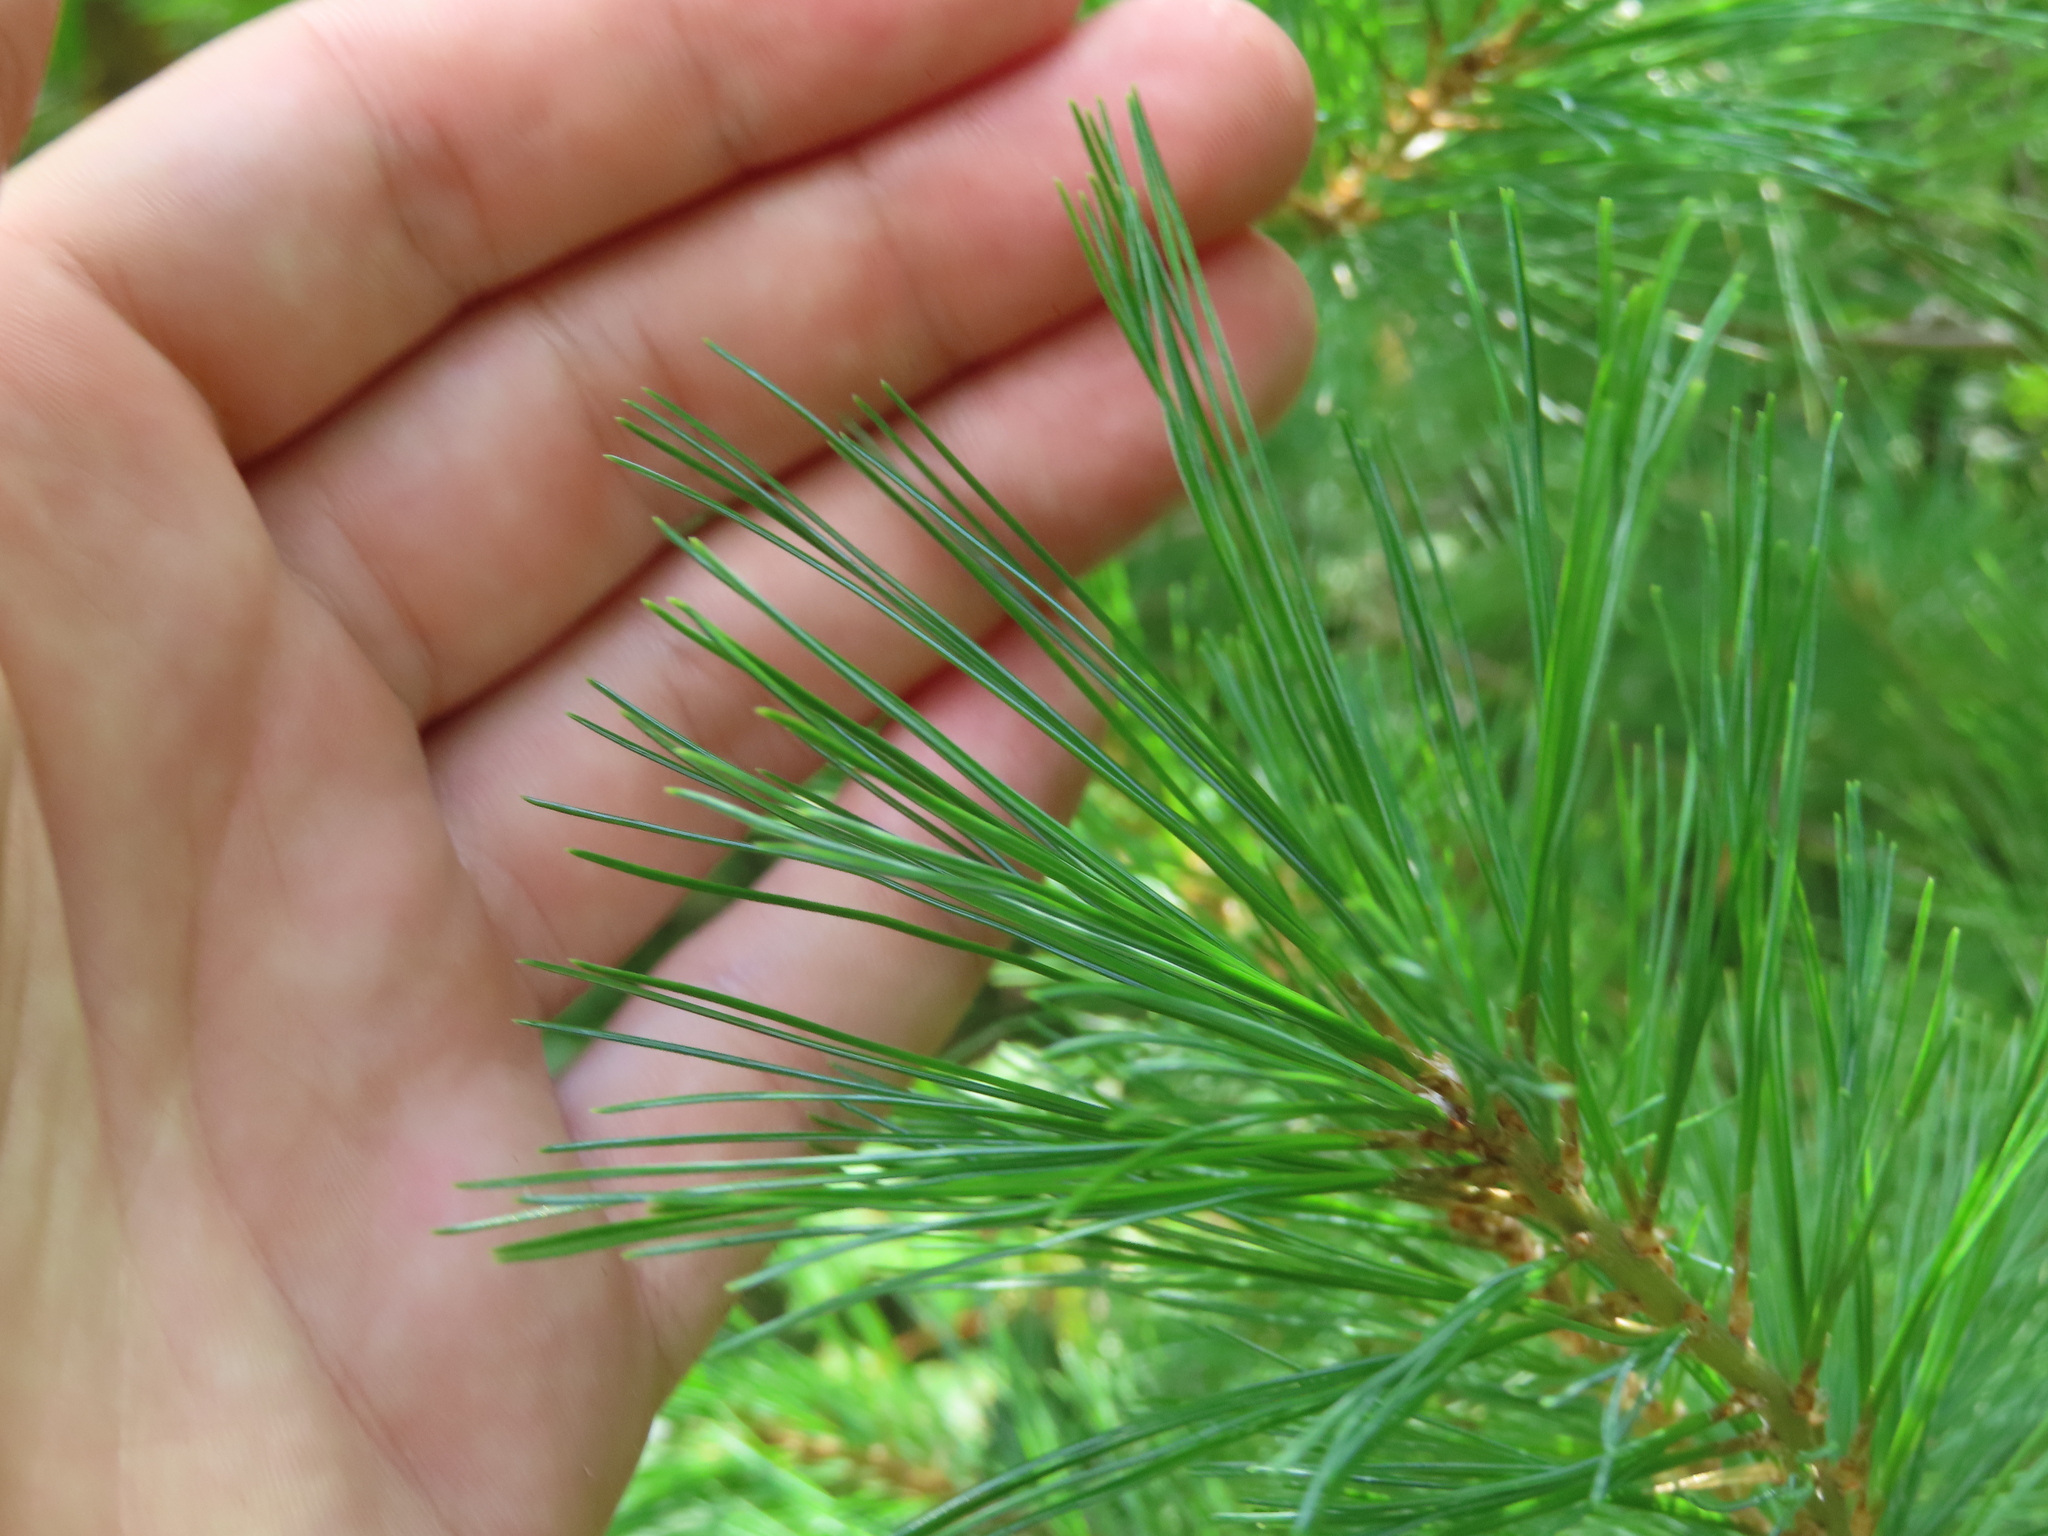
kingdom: Plantae
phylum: Tracheophyta
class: Pinopsida
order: Pinales
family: Pinaceae
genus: Pinus
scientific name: Pinus strobus
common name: Weymouth pine
